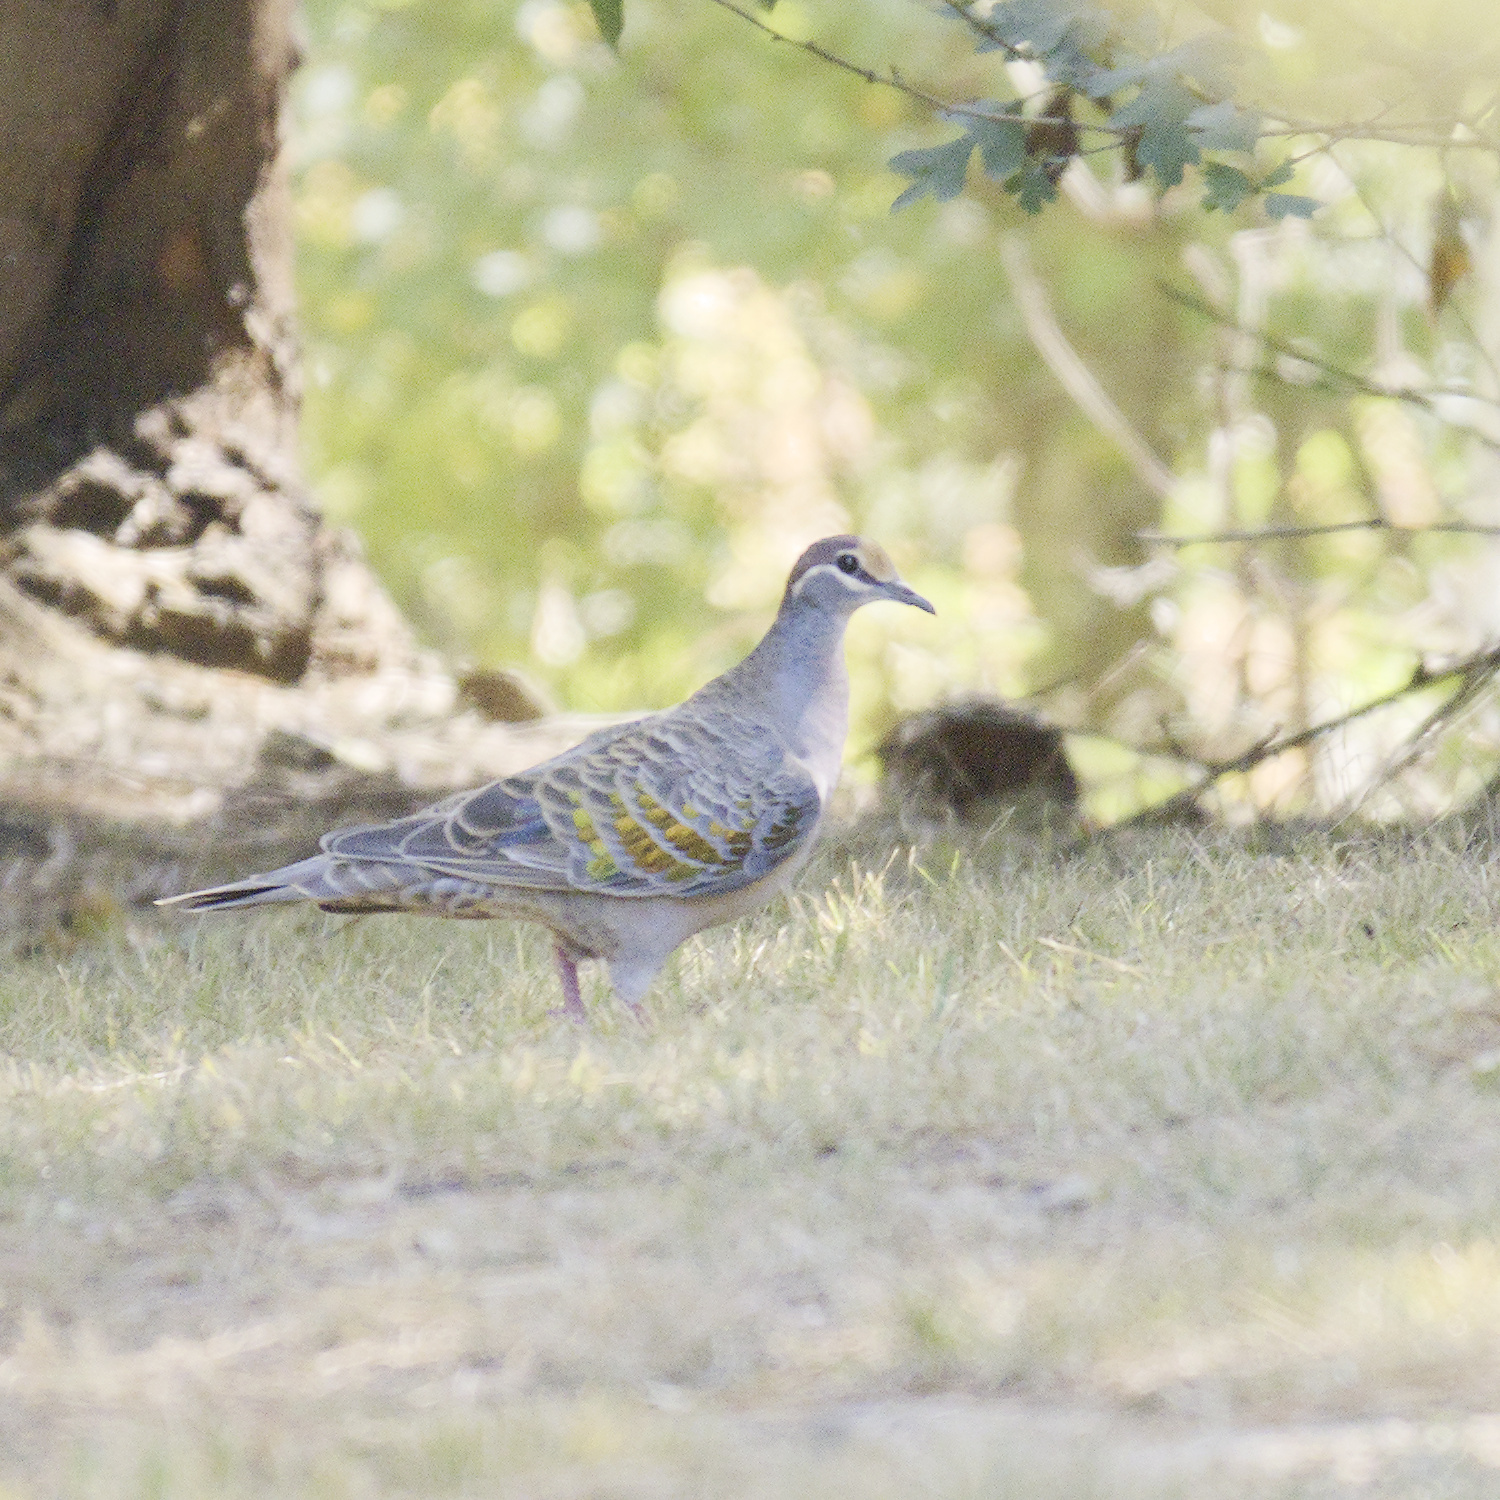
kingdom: Animalia
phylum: Chordata
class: Aves
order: Columbiformes
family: Columbidae
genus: Phaps
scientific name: Phaps chalcoptera
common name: Common bronzewing
